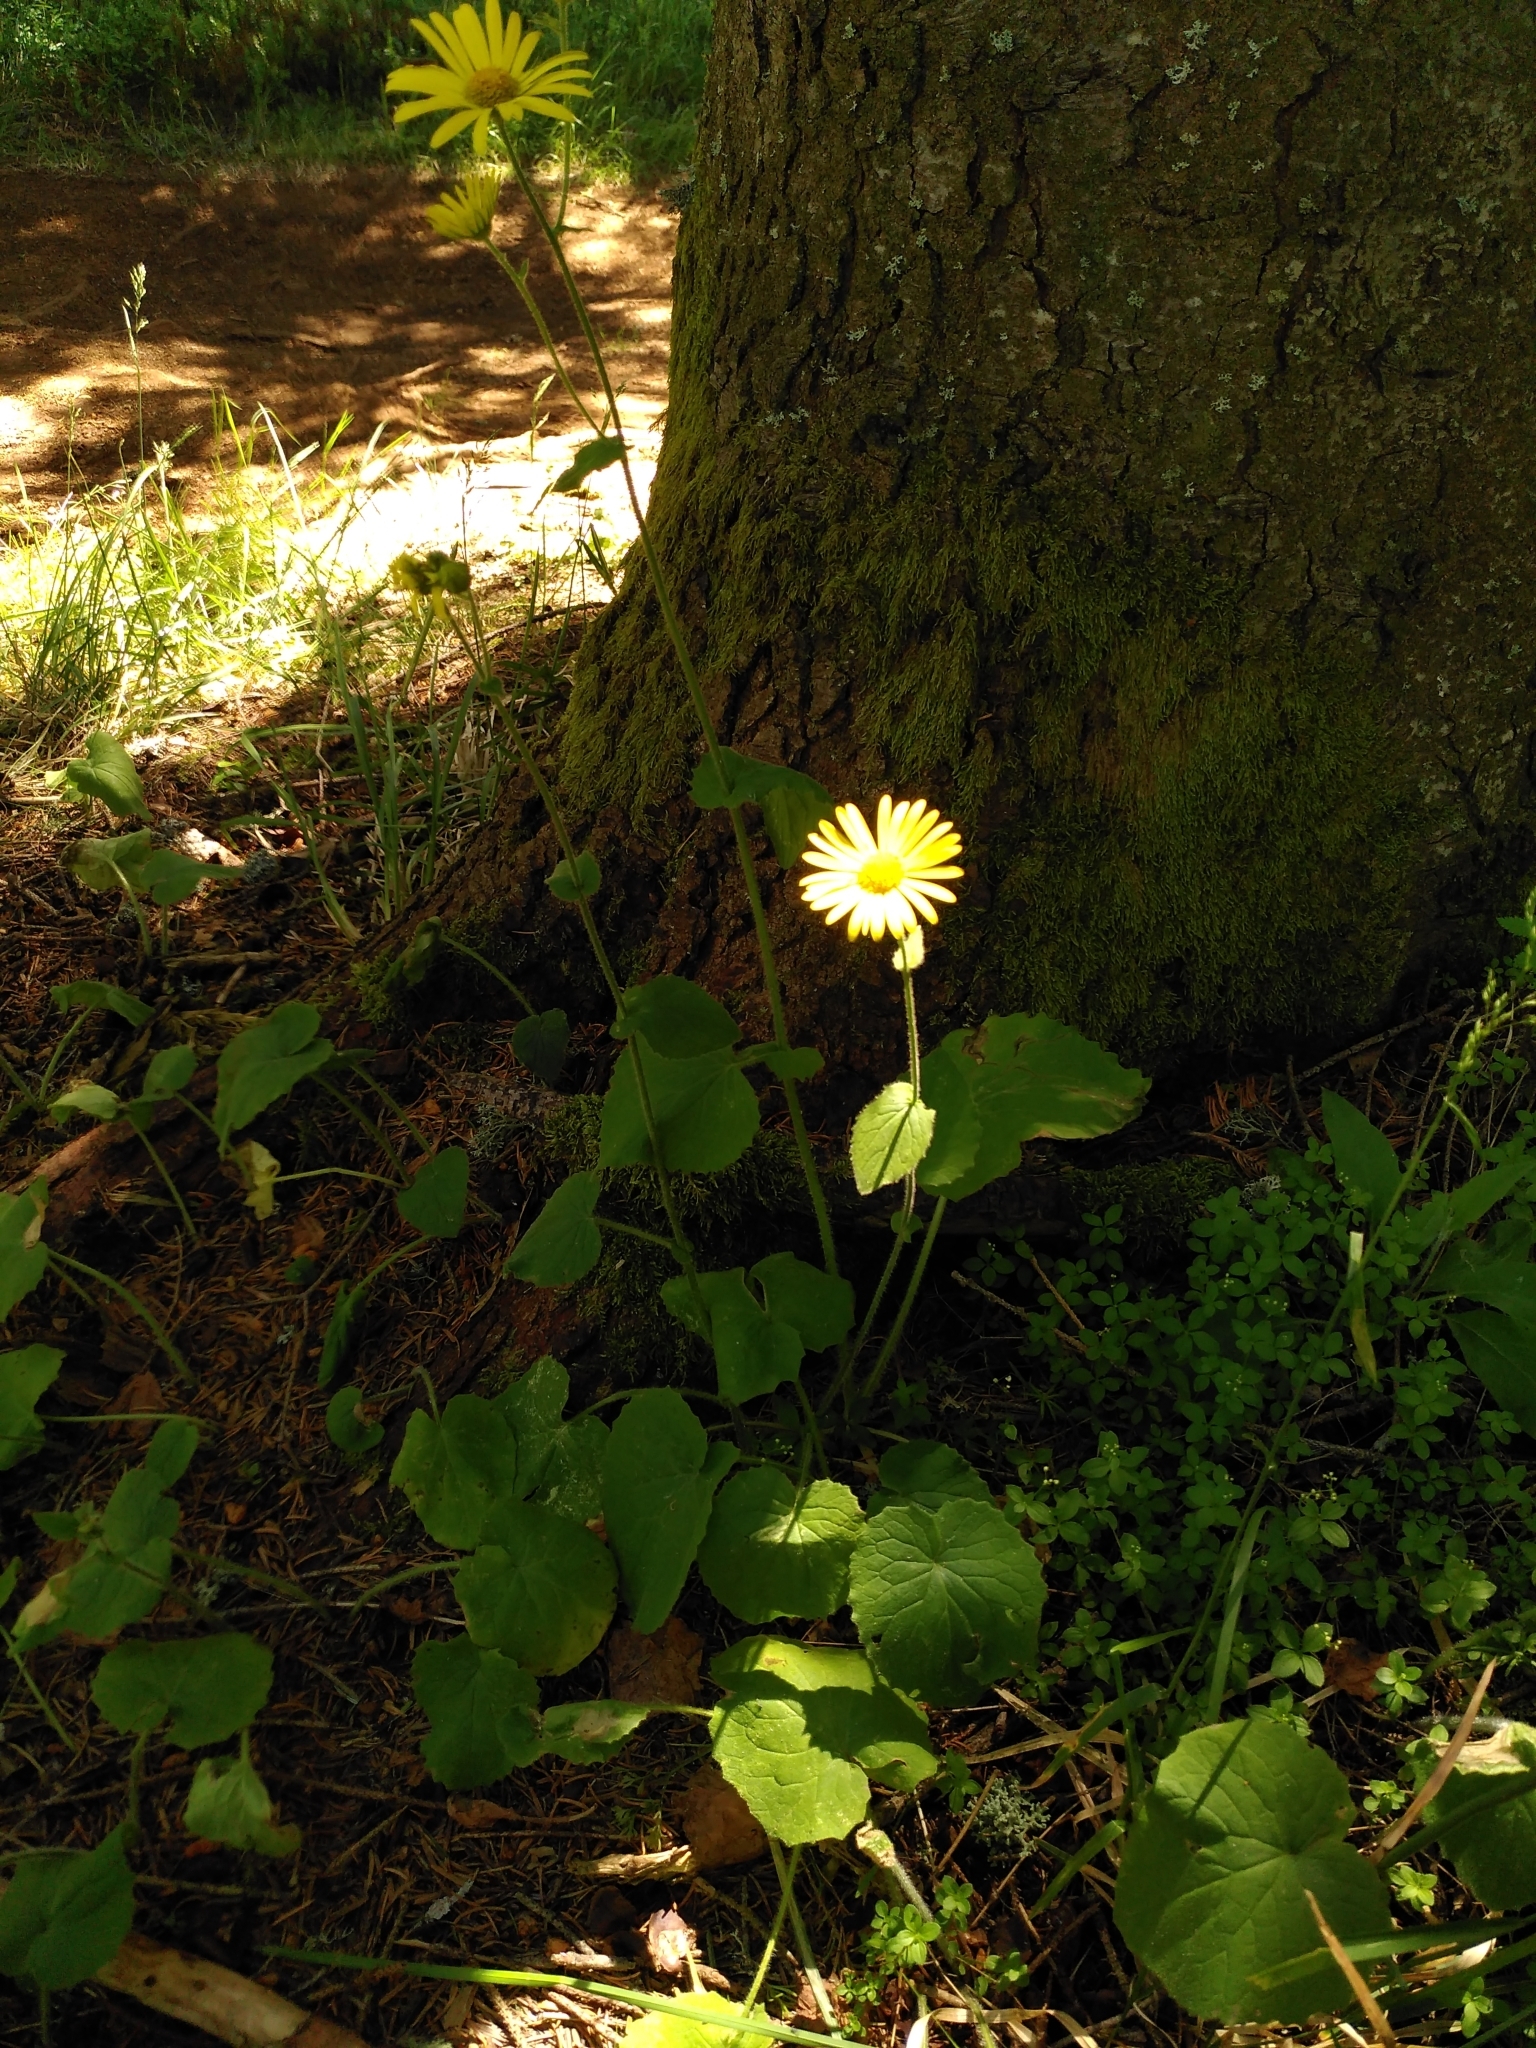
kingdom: Plantae
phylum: Tracheophyta
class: Magnoliopsida
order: Asterales
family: Asteraceae
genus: Doronicum
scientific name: Doronicum pardalianches
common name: Leopard's-bane
